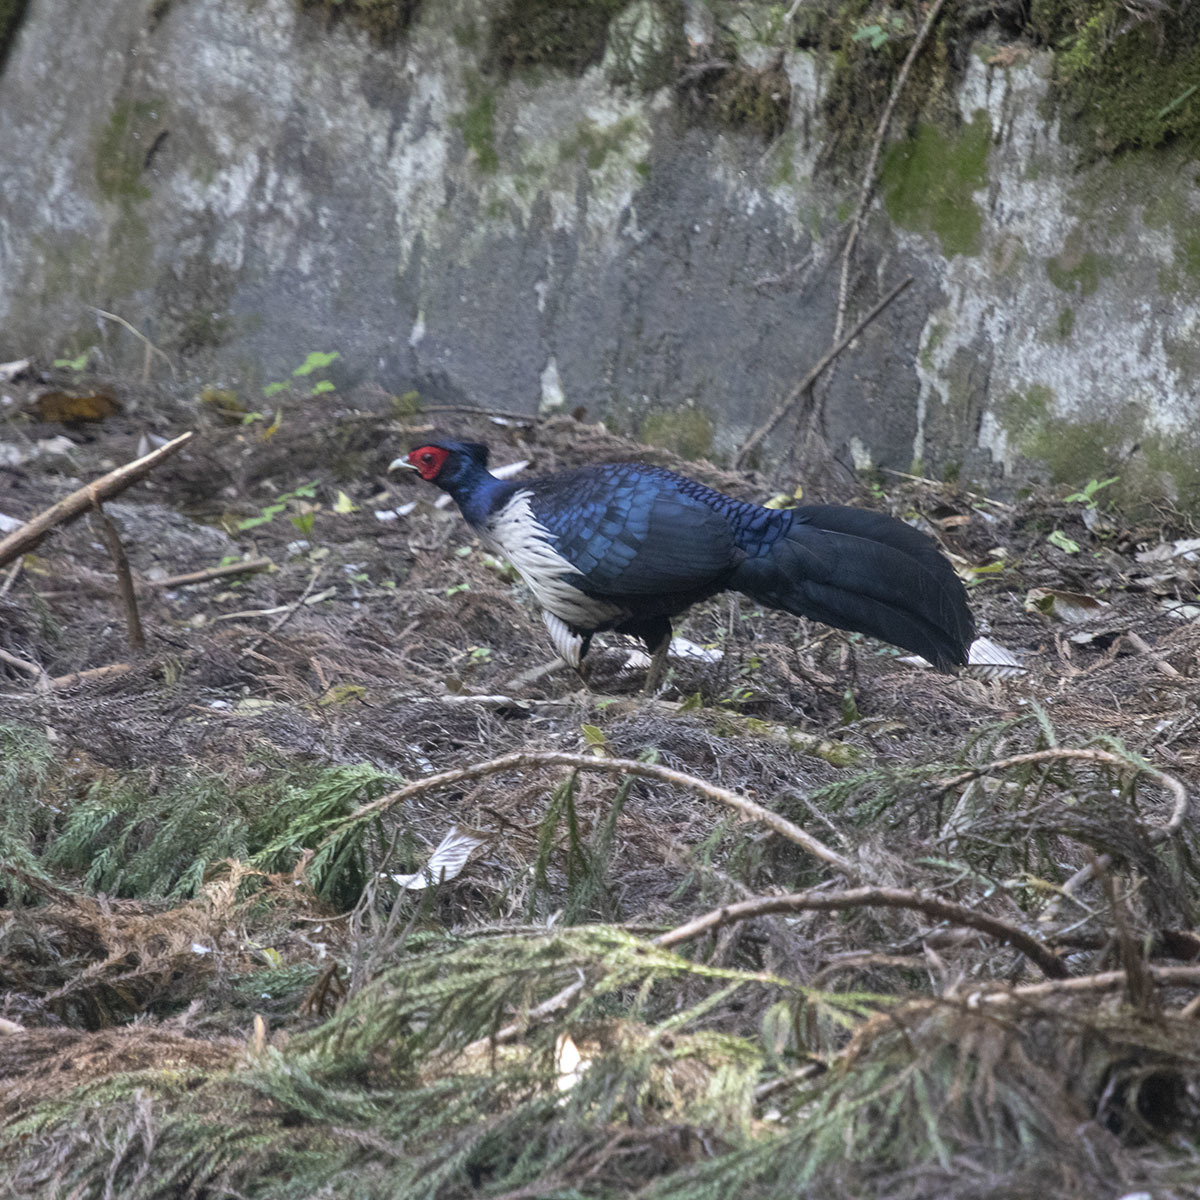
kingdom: Animalia
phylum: Chordata
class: Aves
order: Galliformes
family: Phasianidae
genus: Lophura
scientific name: Lophura leucomelanos
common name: Kalij pheasant
